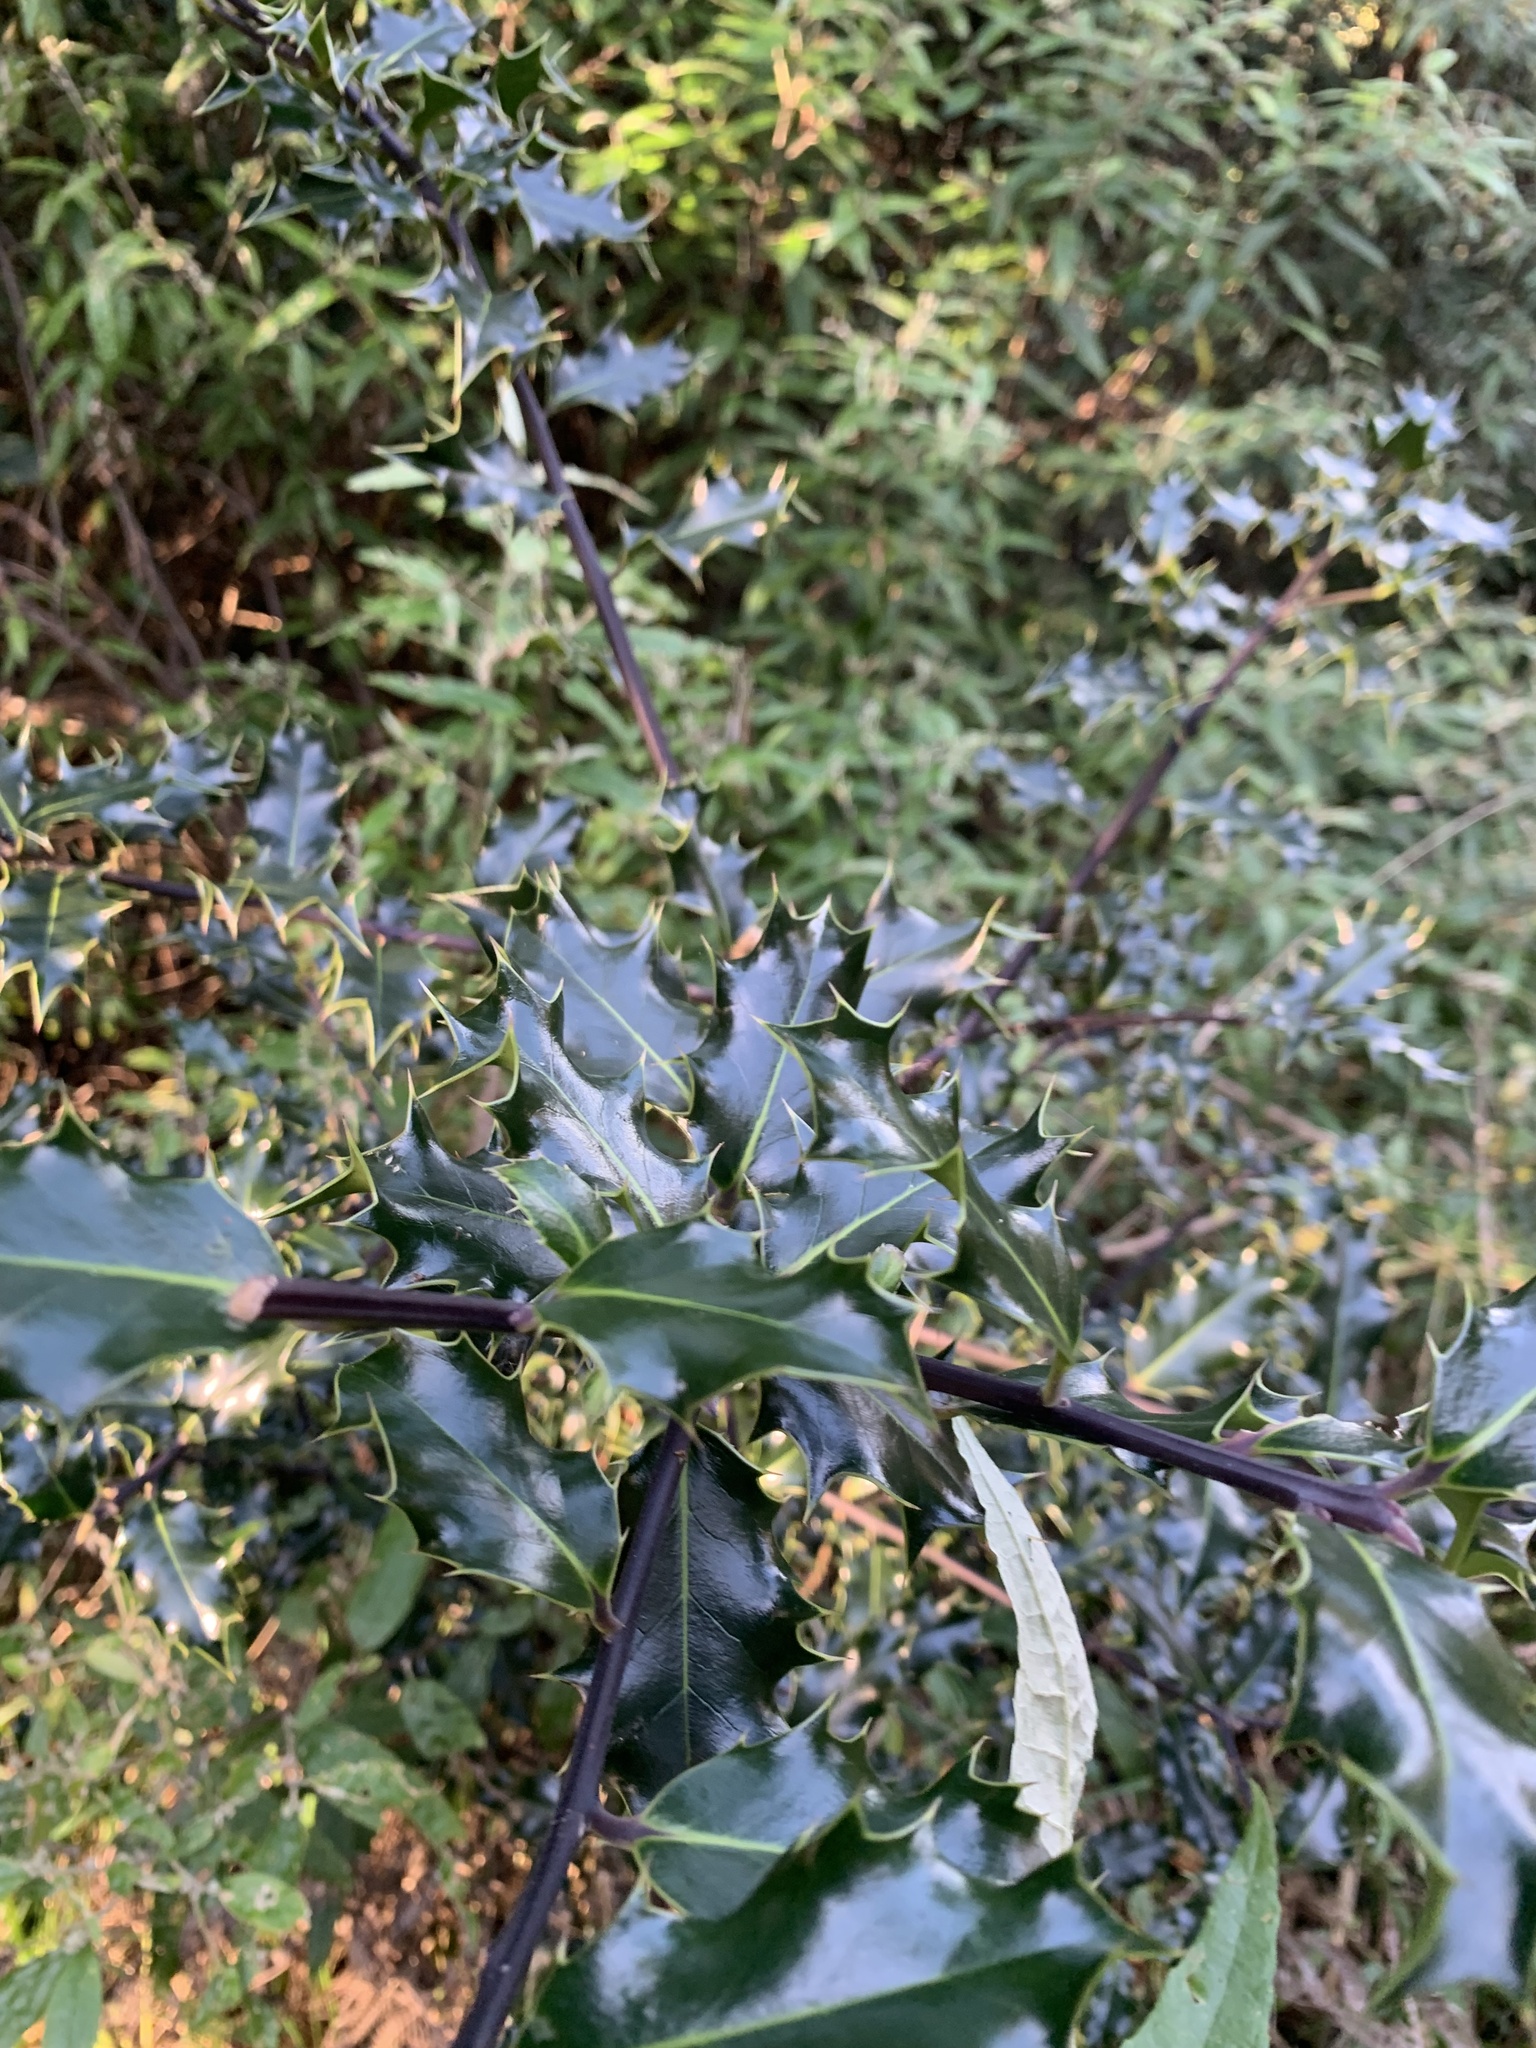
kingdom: Plantae
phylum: Tracheophyta
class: Magnoliopsida
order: Aquifoliales
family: Aquifoliaceae
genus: Ilex
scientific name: Ilex aquifolium
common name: English holly
